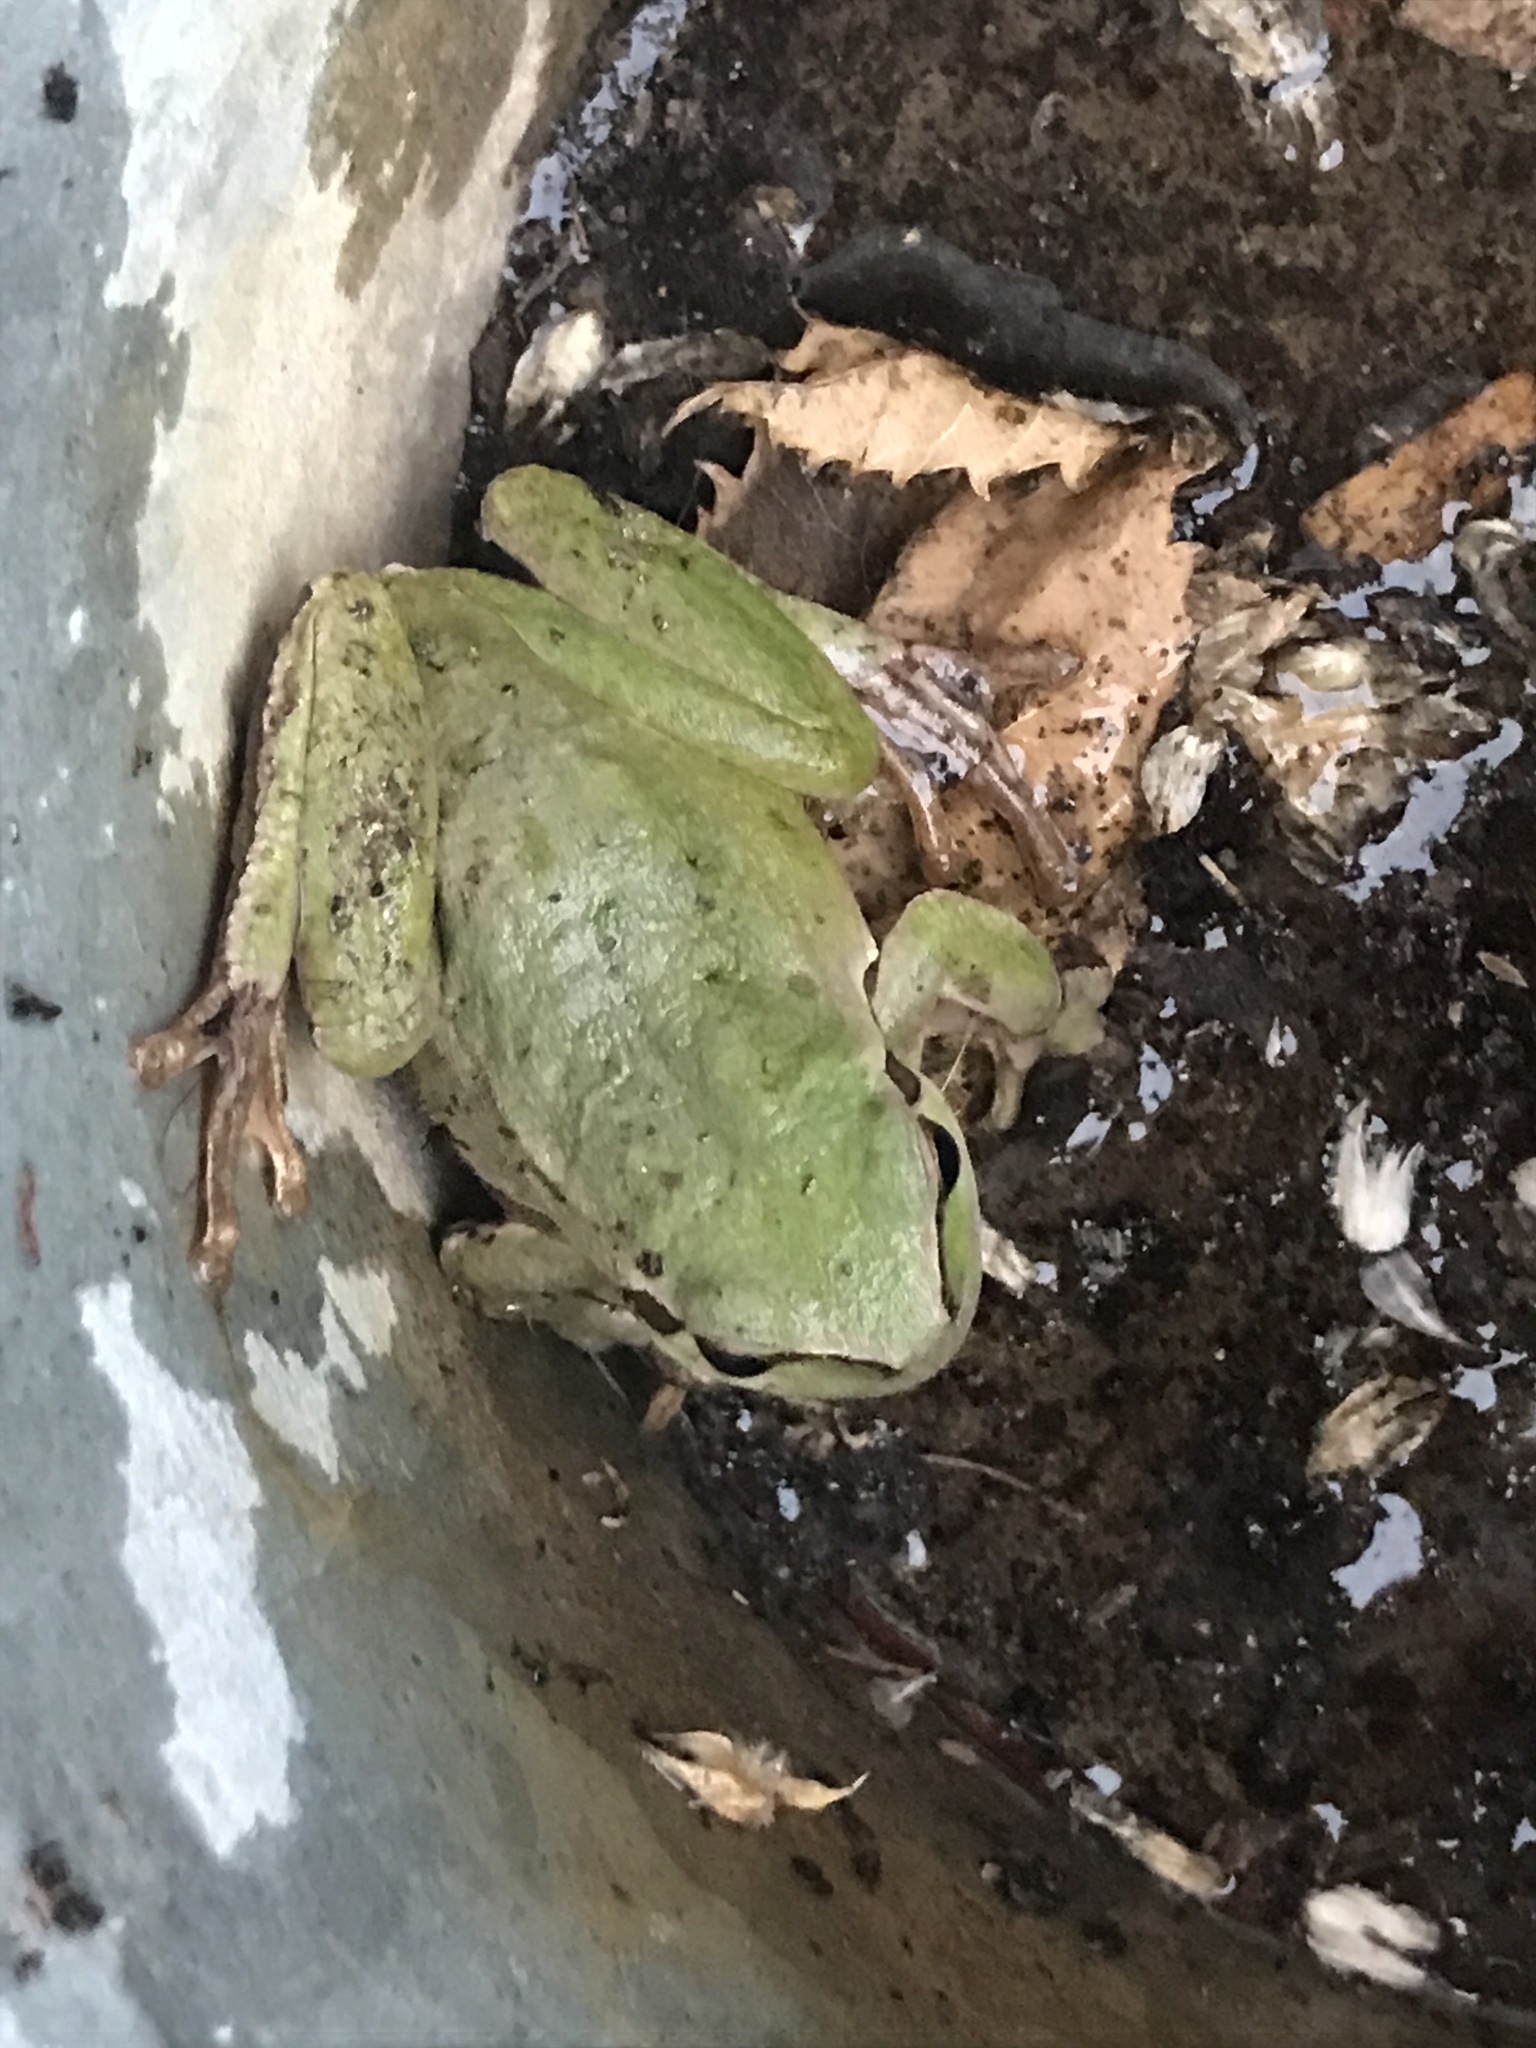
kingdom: Animalia
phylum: Chordata
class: Amphibia
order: Anura
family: Hylidae
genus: Hyla
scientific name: Hyla arborea
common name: Common tree frog
